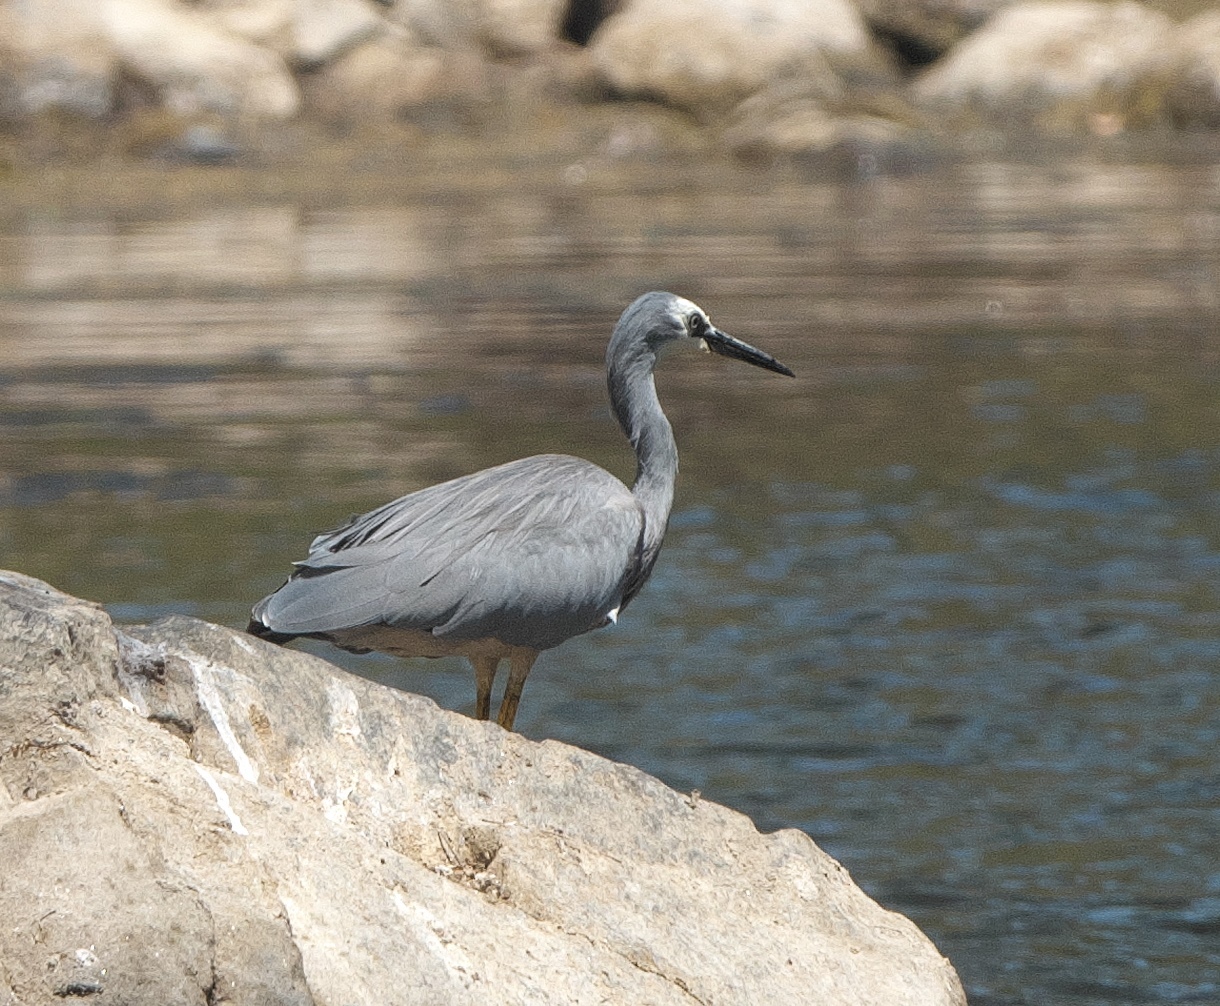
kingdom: Animalia
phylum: Chordata
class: Aves
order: Pelecaniformes
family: Ardeidae
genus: Egretta
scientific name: Egretta novaehollandiae
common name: White-faced heron
